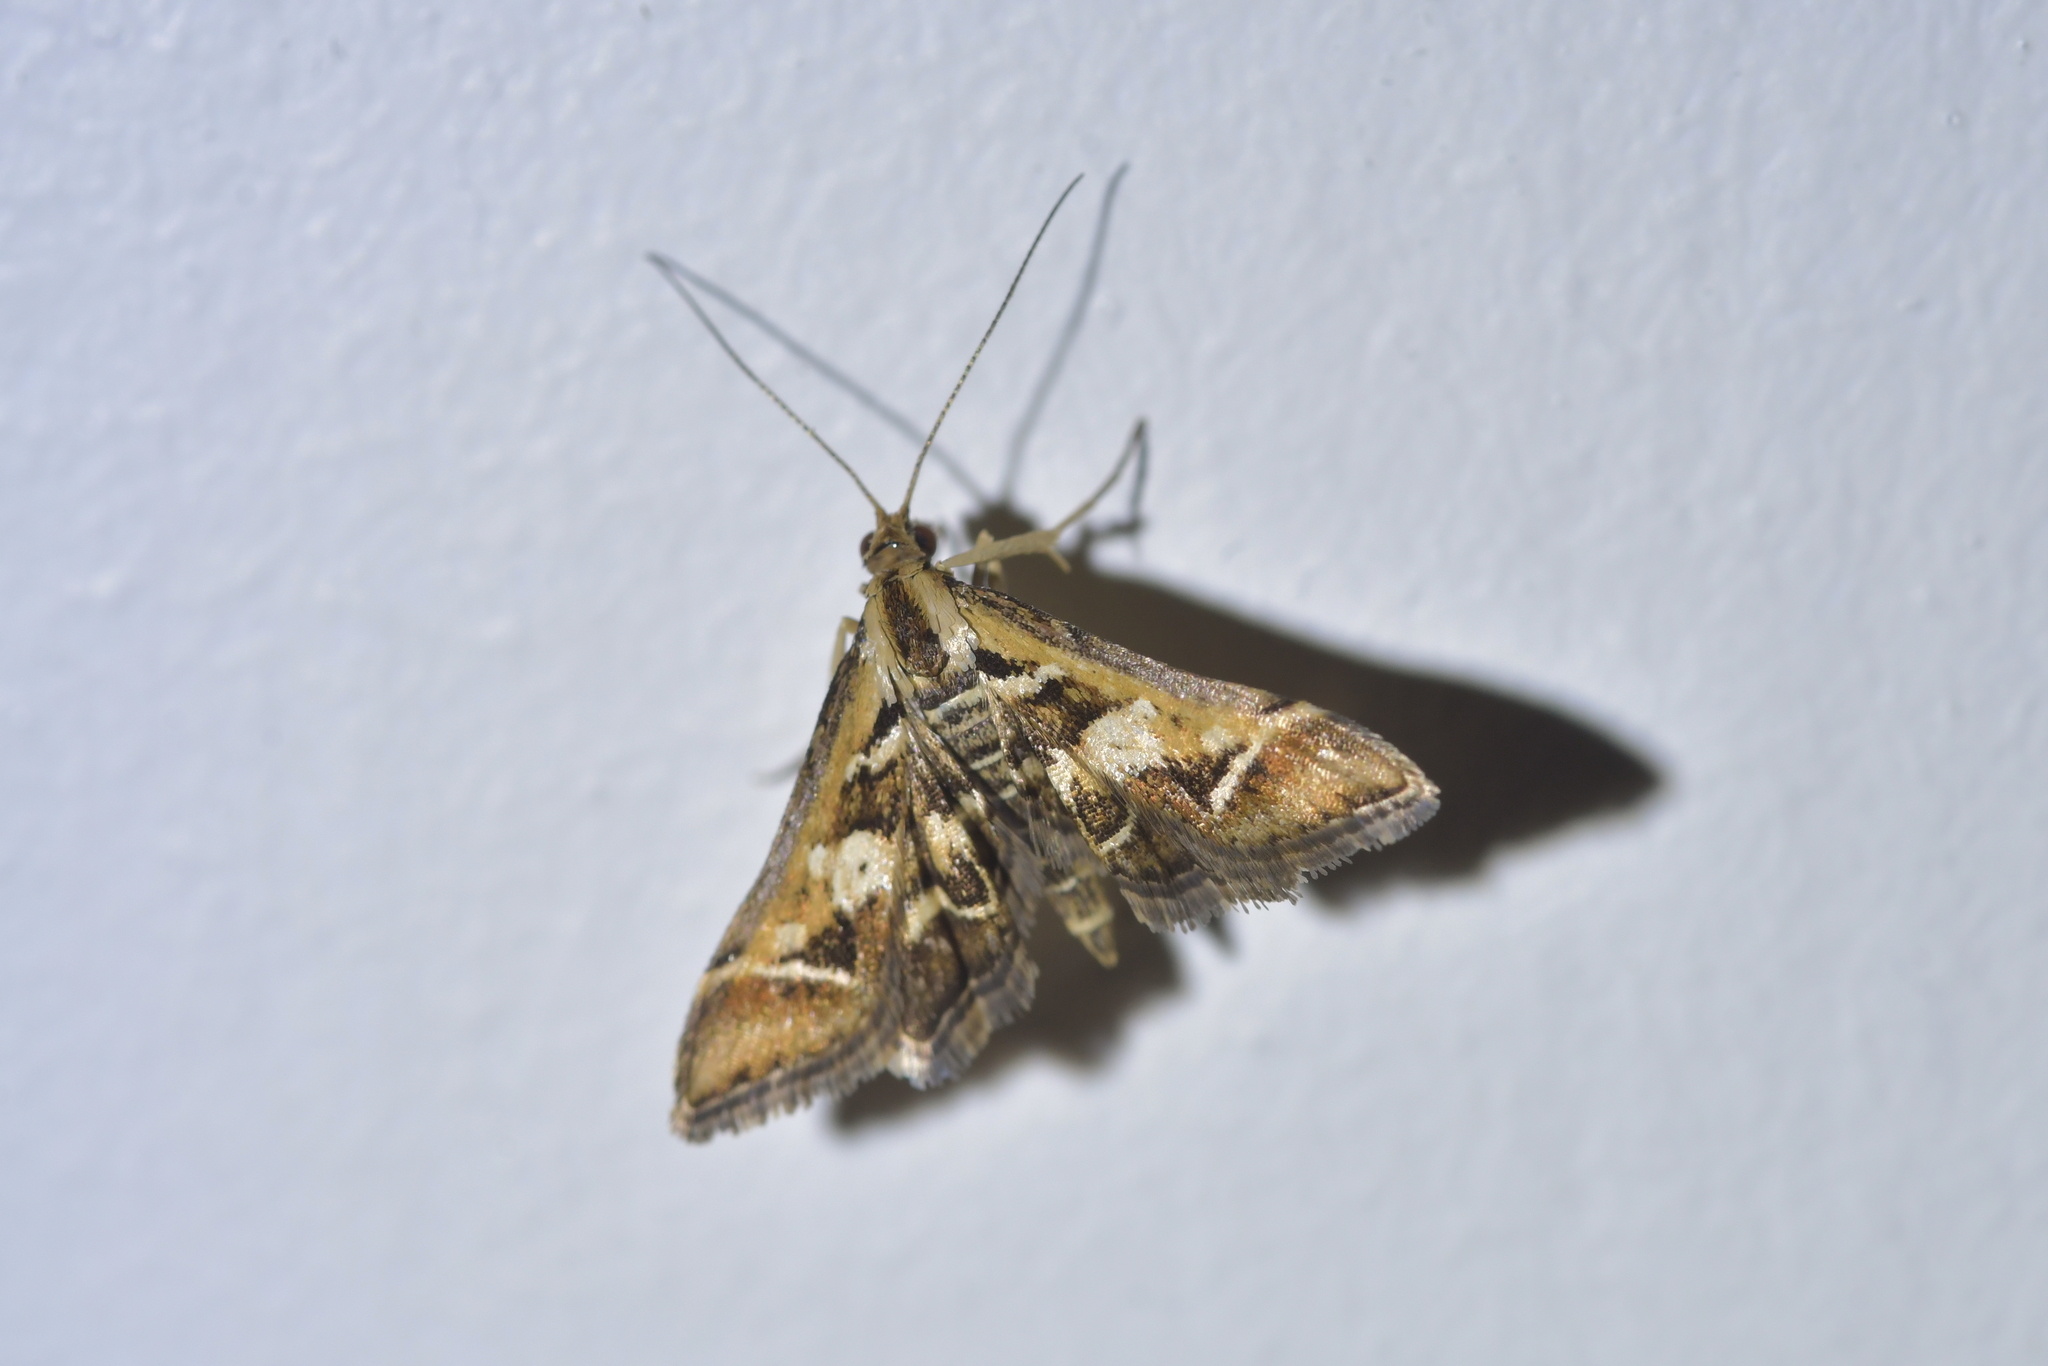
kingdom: Animalia
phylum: Arthropoda
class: Insecta
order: Lepidoptera
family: Crambidae
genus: Diasemia
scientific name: Diasemia grammalis
